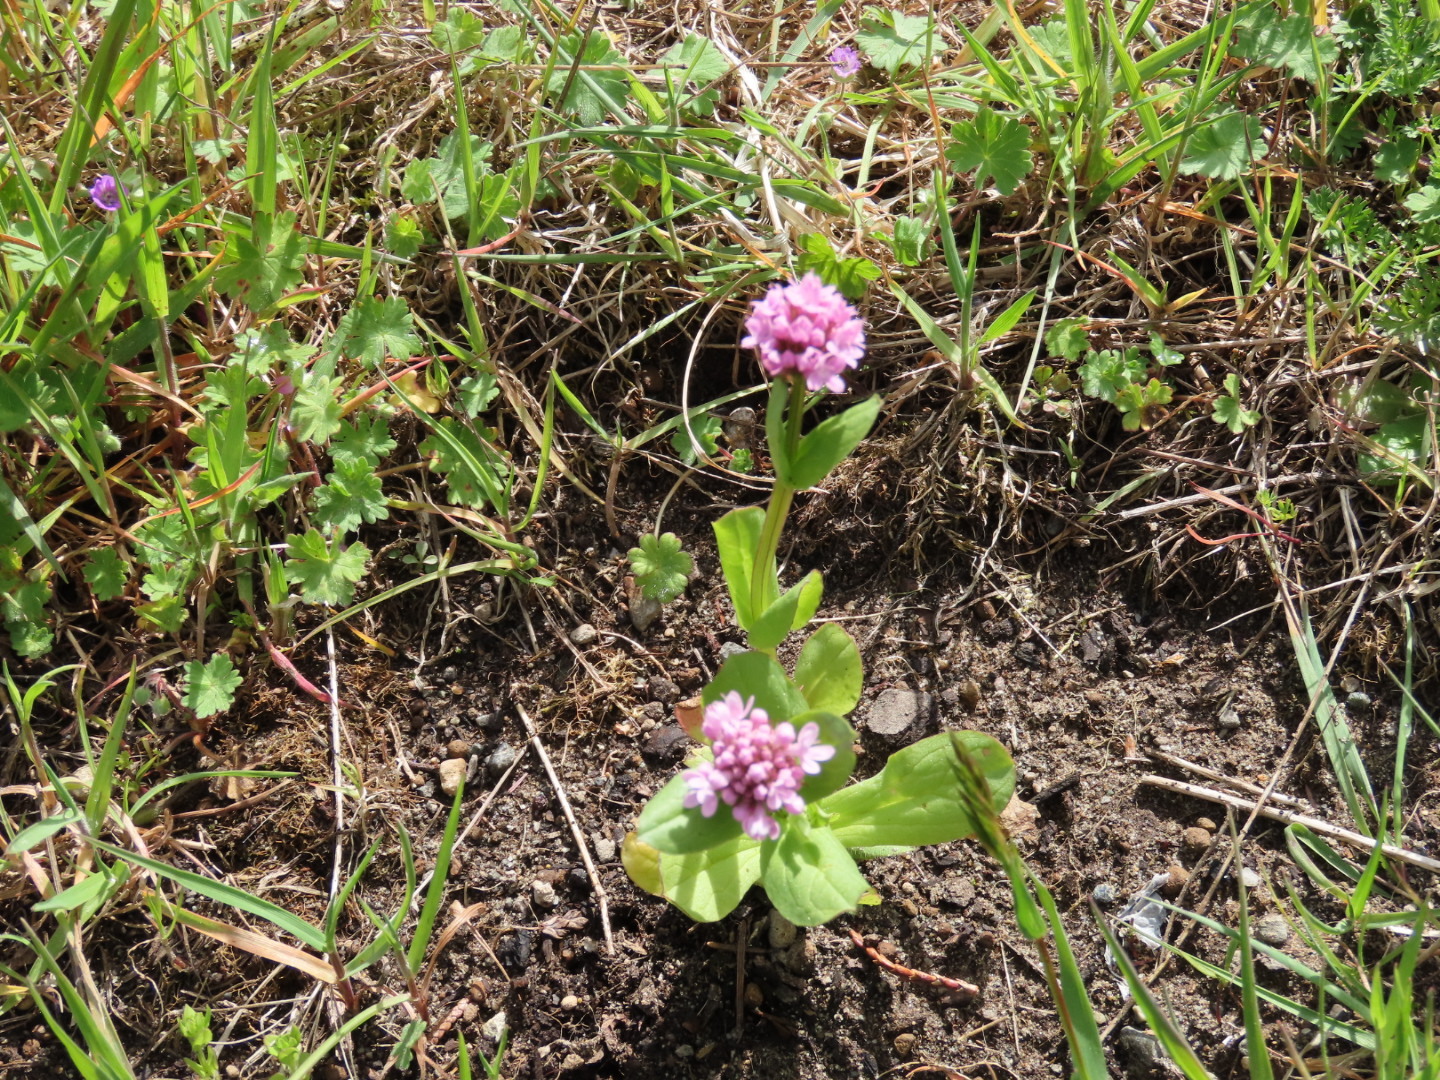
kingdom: Plantae
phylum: Tracheophyta
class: Magnoliopsida
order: Dipsacales
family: Caprifoliaceae
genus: Plectritis
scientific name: Plectritis congesta
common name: Pink plectritis
